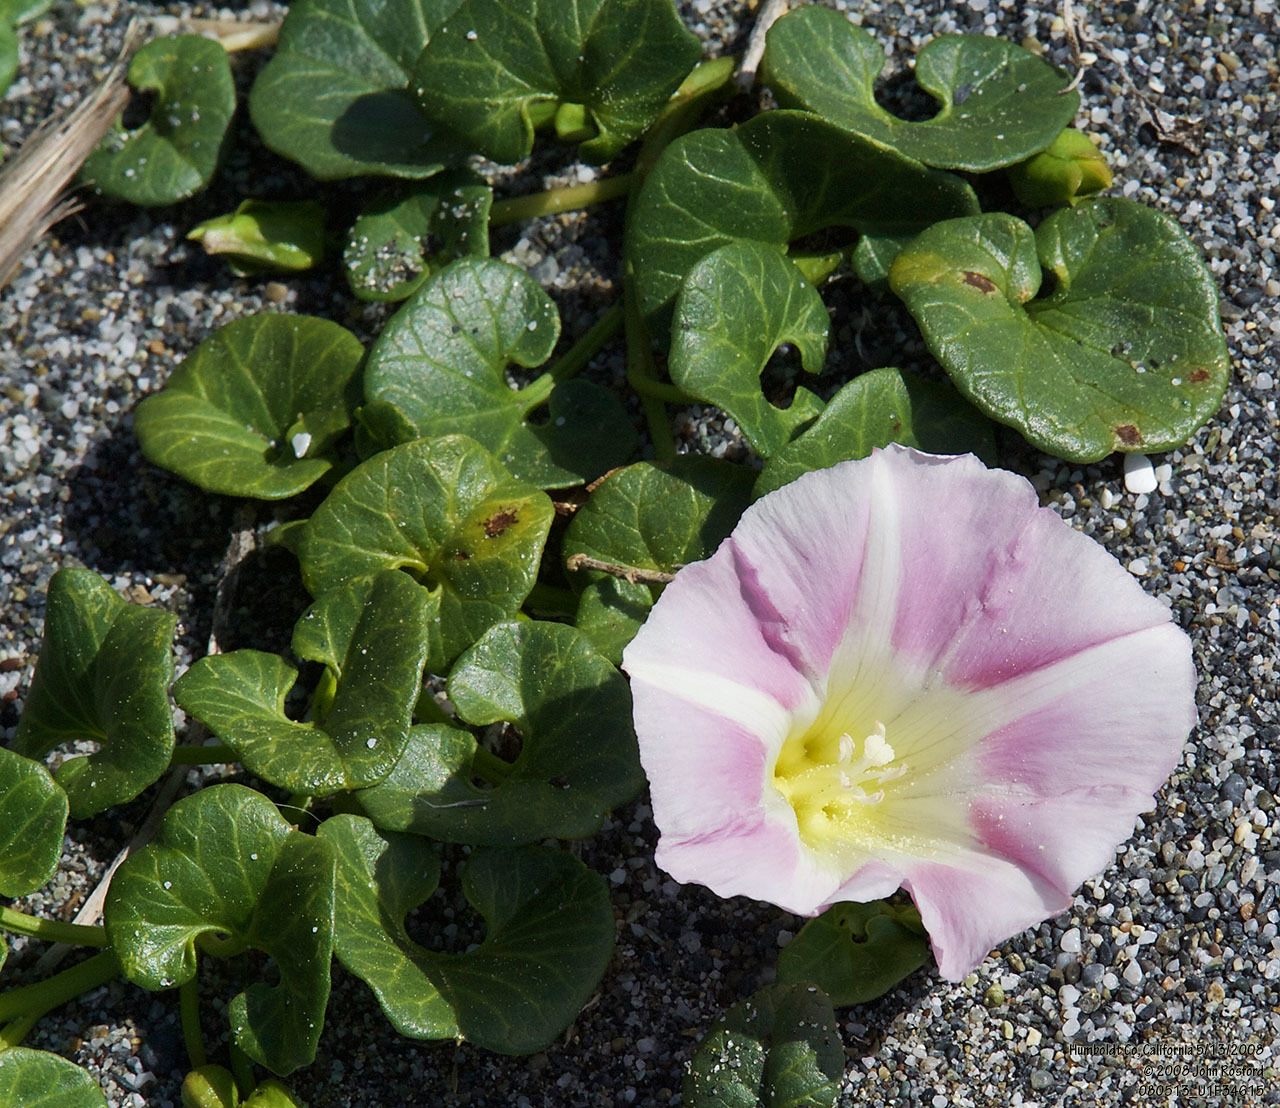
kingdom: Plantae
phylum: Tracheophyta
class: Magnoliopsida
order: Solanales
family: Convolvulaceae
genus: Calystegia
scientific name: Calystegia soldanella
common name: Sea bindweed
